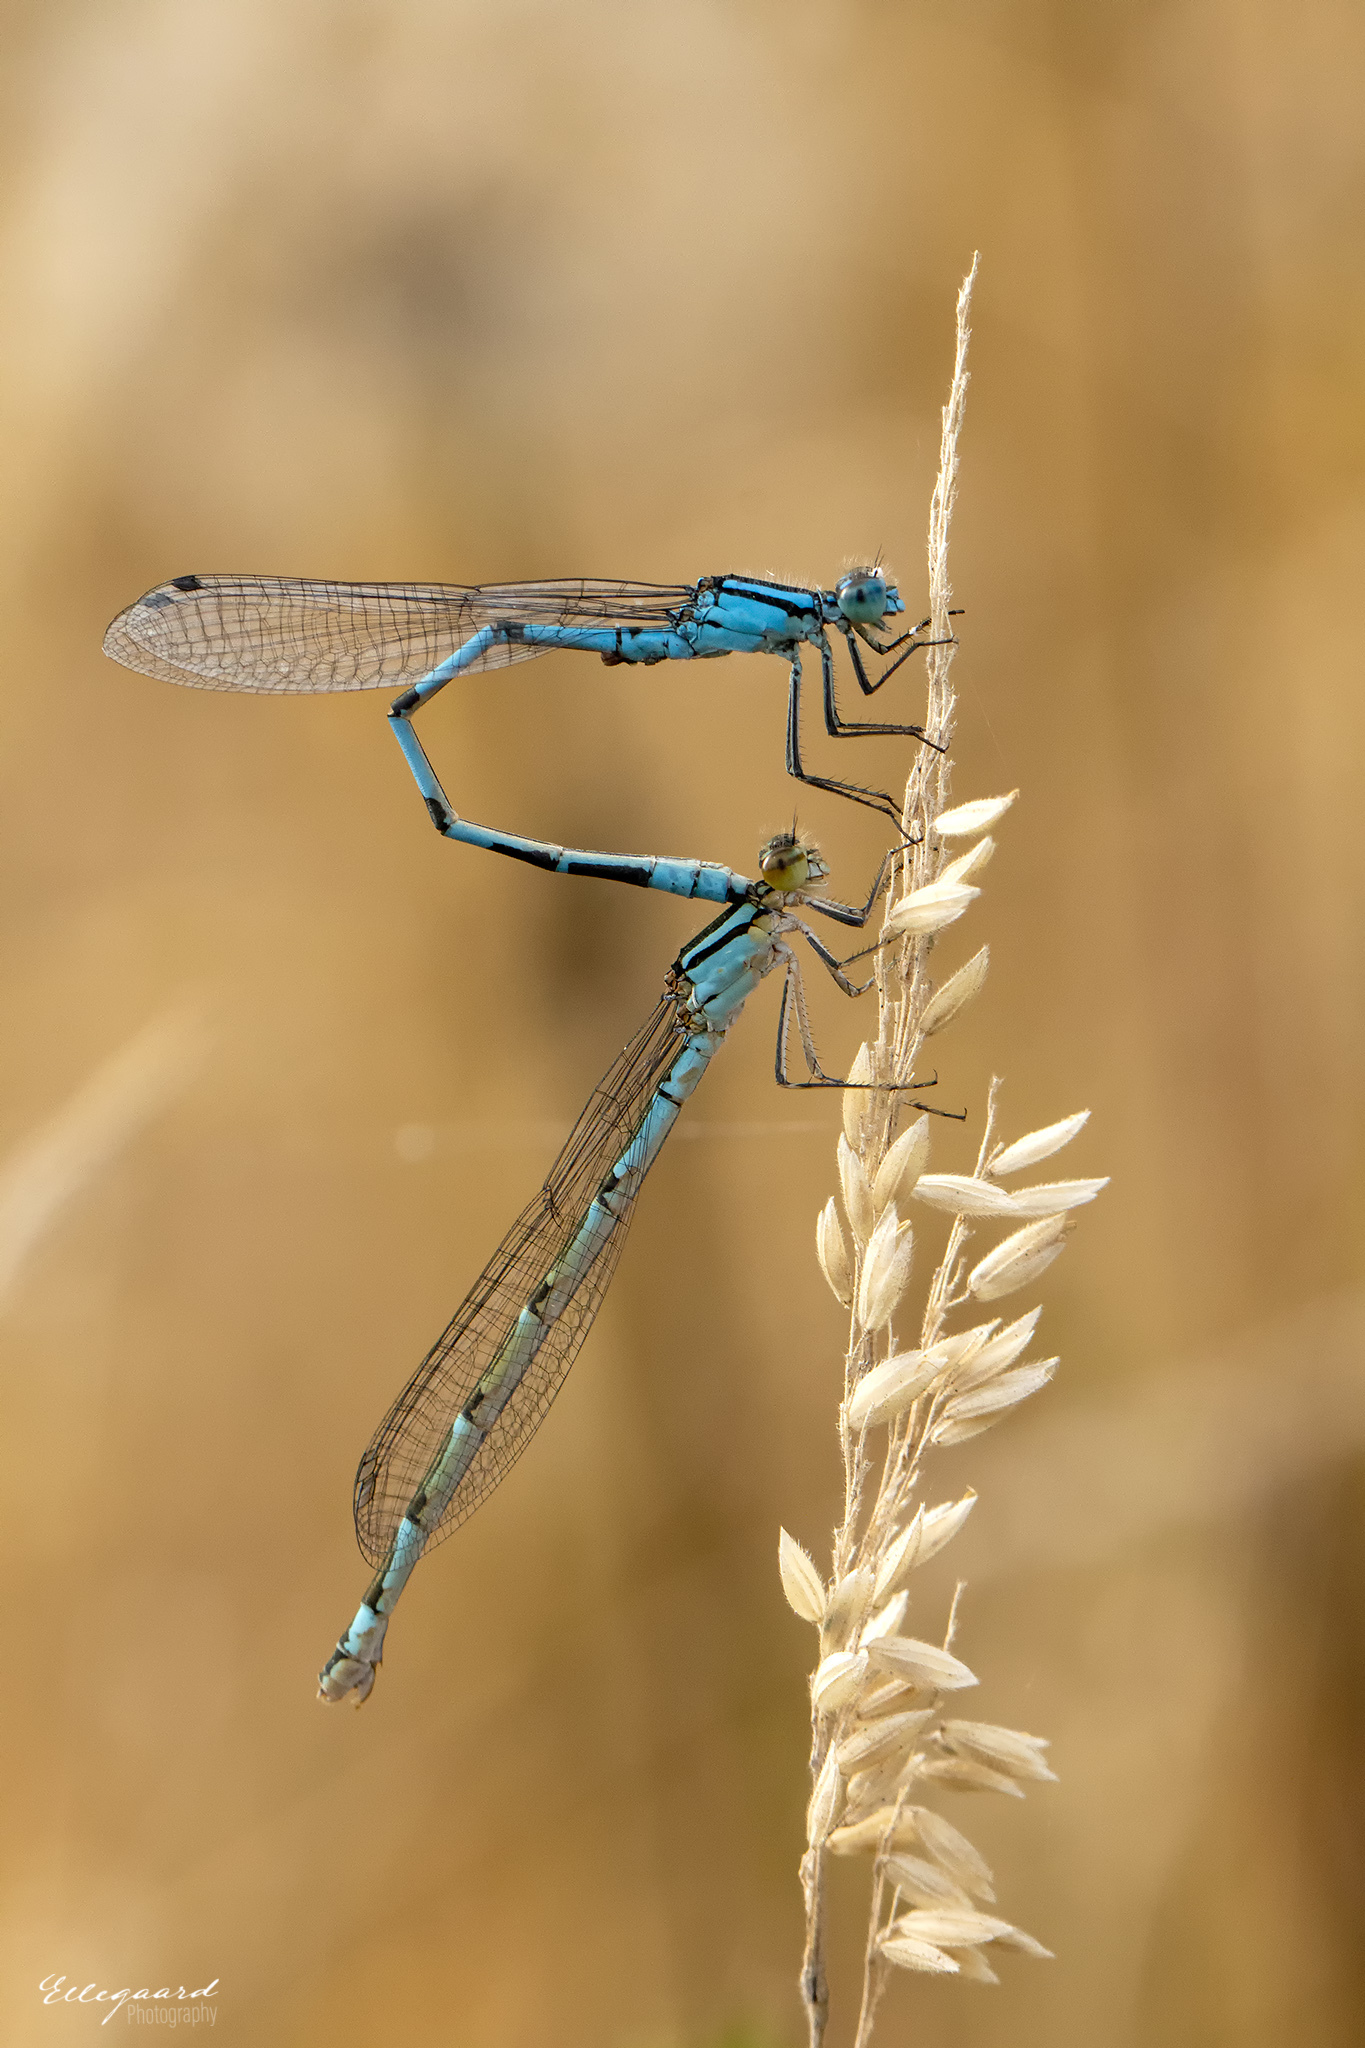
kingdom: Animalia
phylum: Arthropoda
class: Insecta
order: Odonata
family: Coenagrionidae
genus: Enallagma
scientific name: Enallagma cyathigerum
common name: Common blue damselfly
